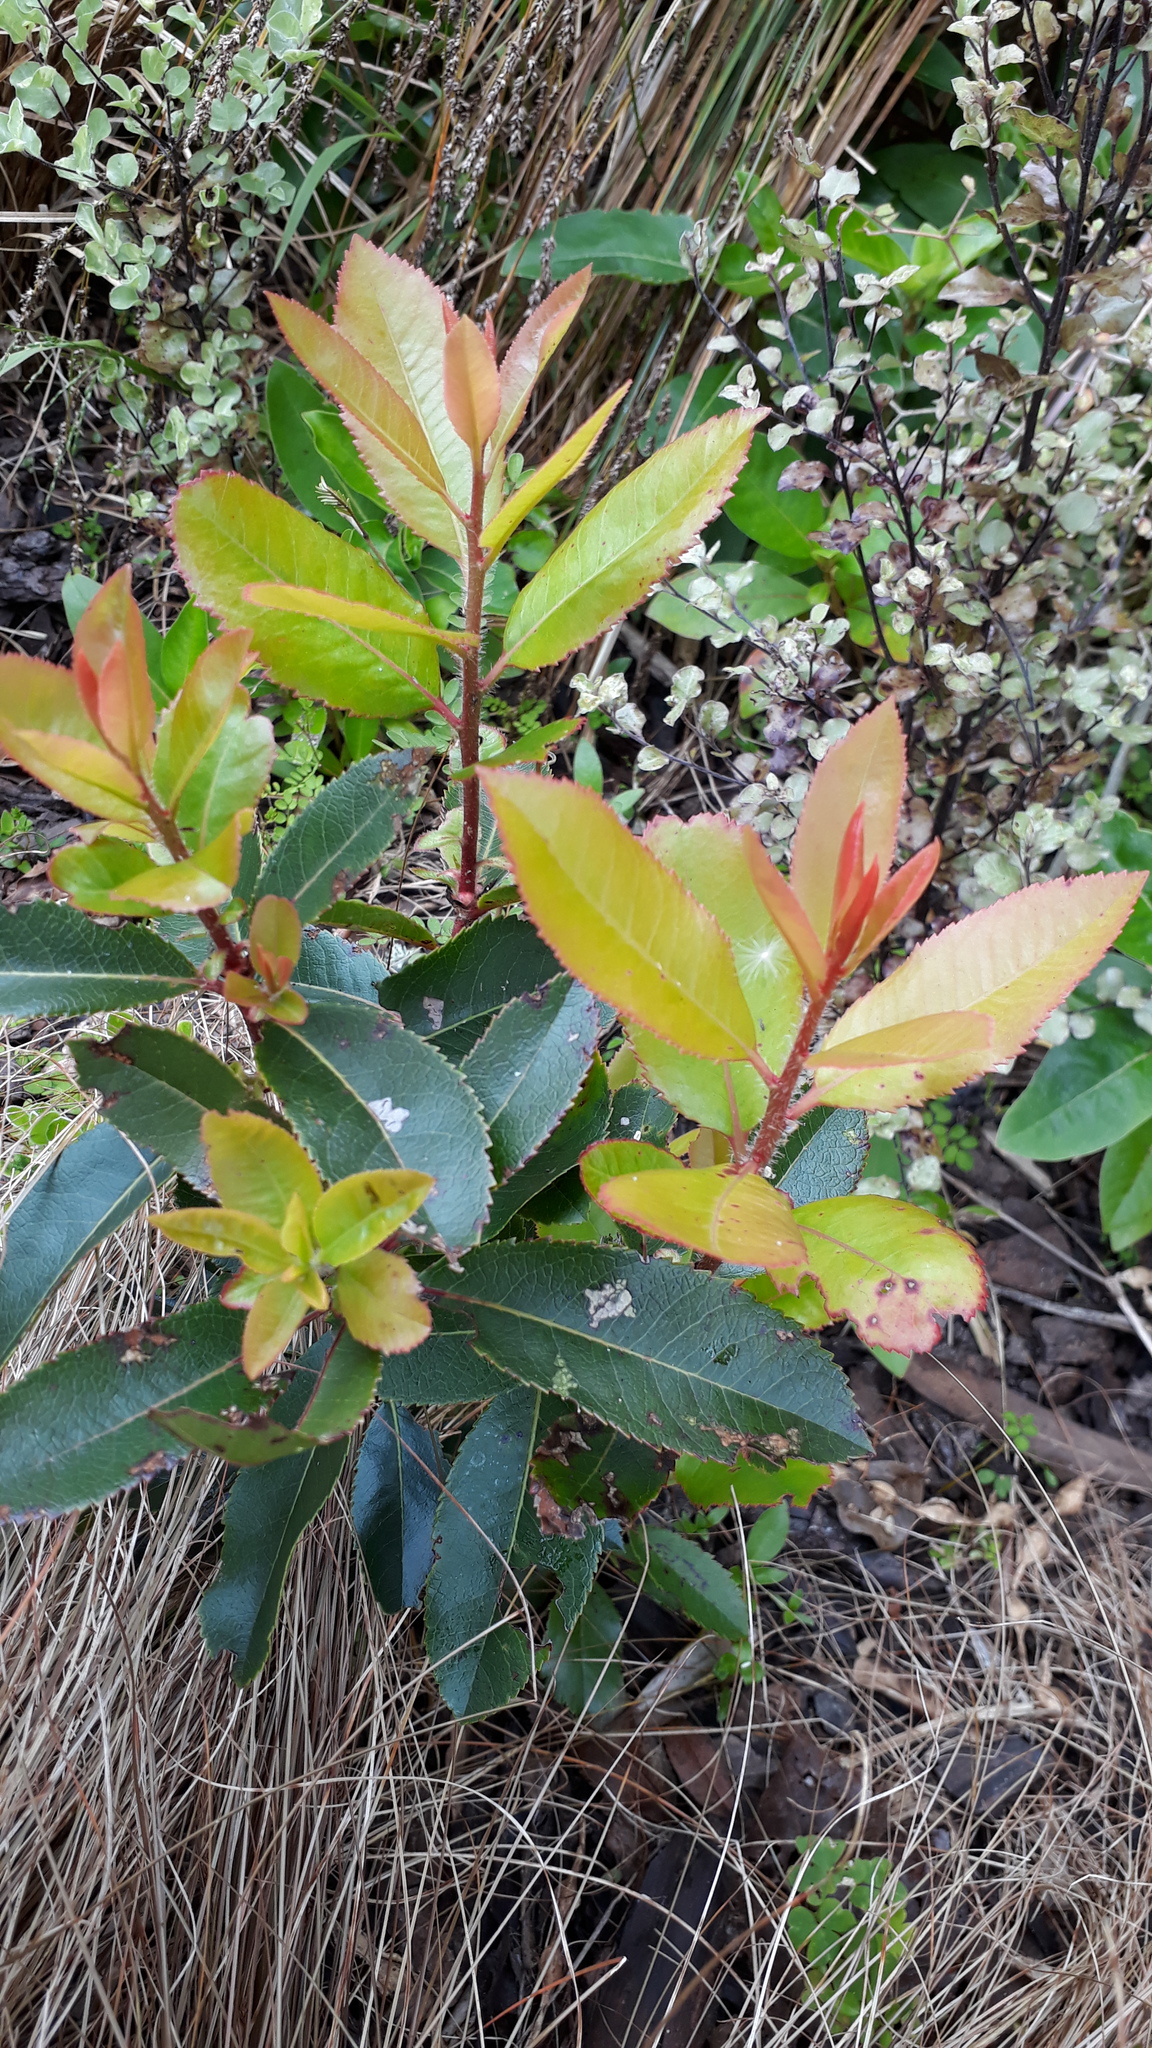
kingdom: Plantae
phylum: Tracheophyta
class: Magnoliopsida
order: Ericales
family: Ericaceae
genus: Arbutus
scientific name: Arbutus unedo
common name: Strawberry-tree
